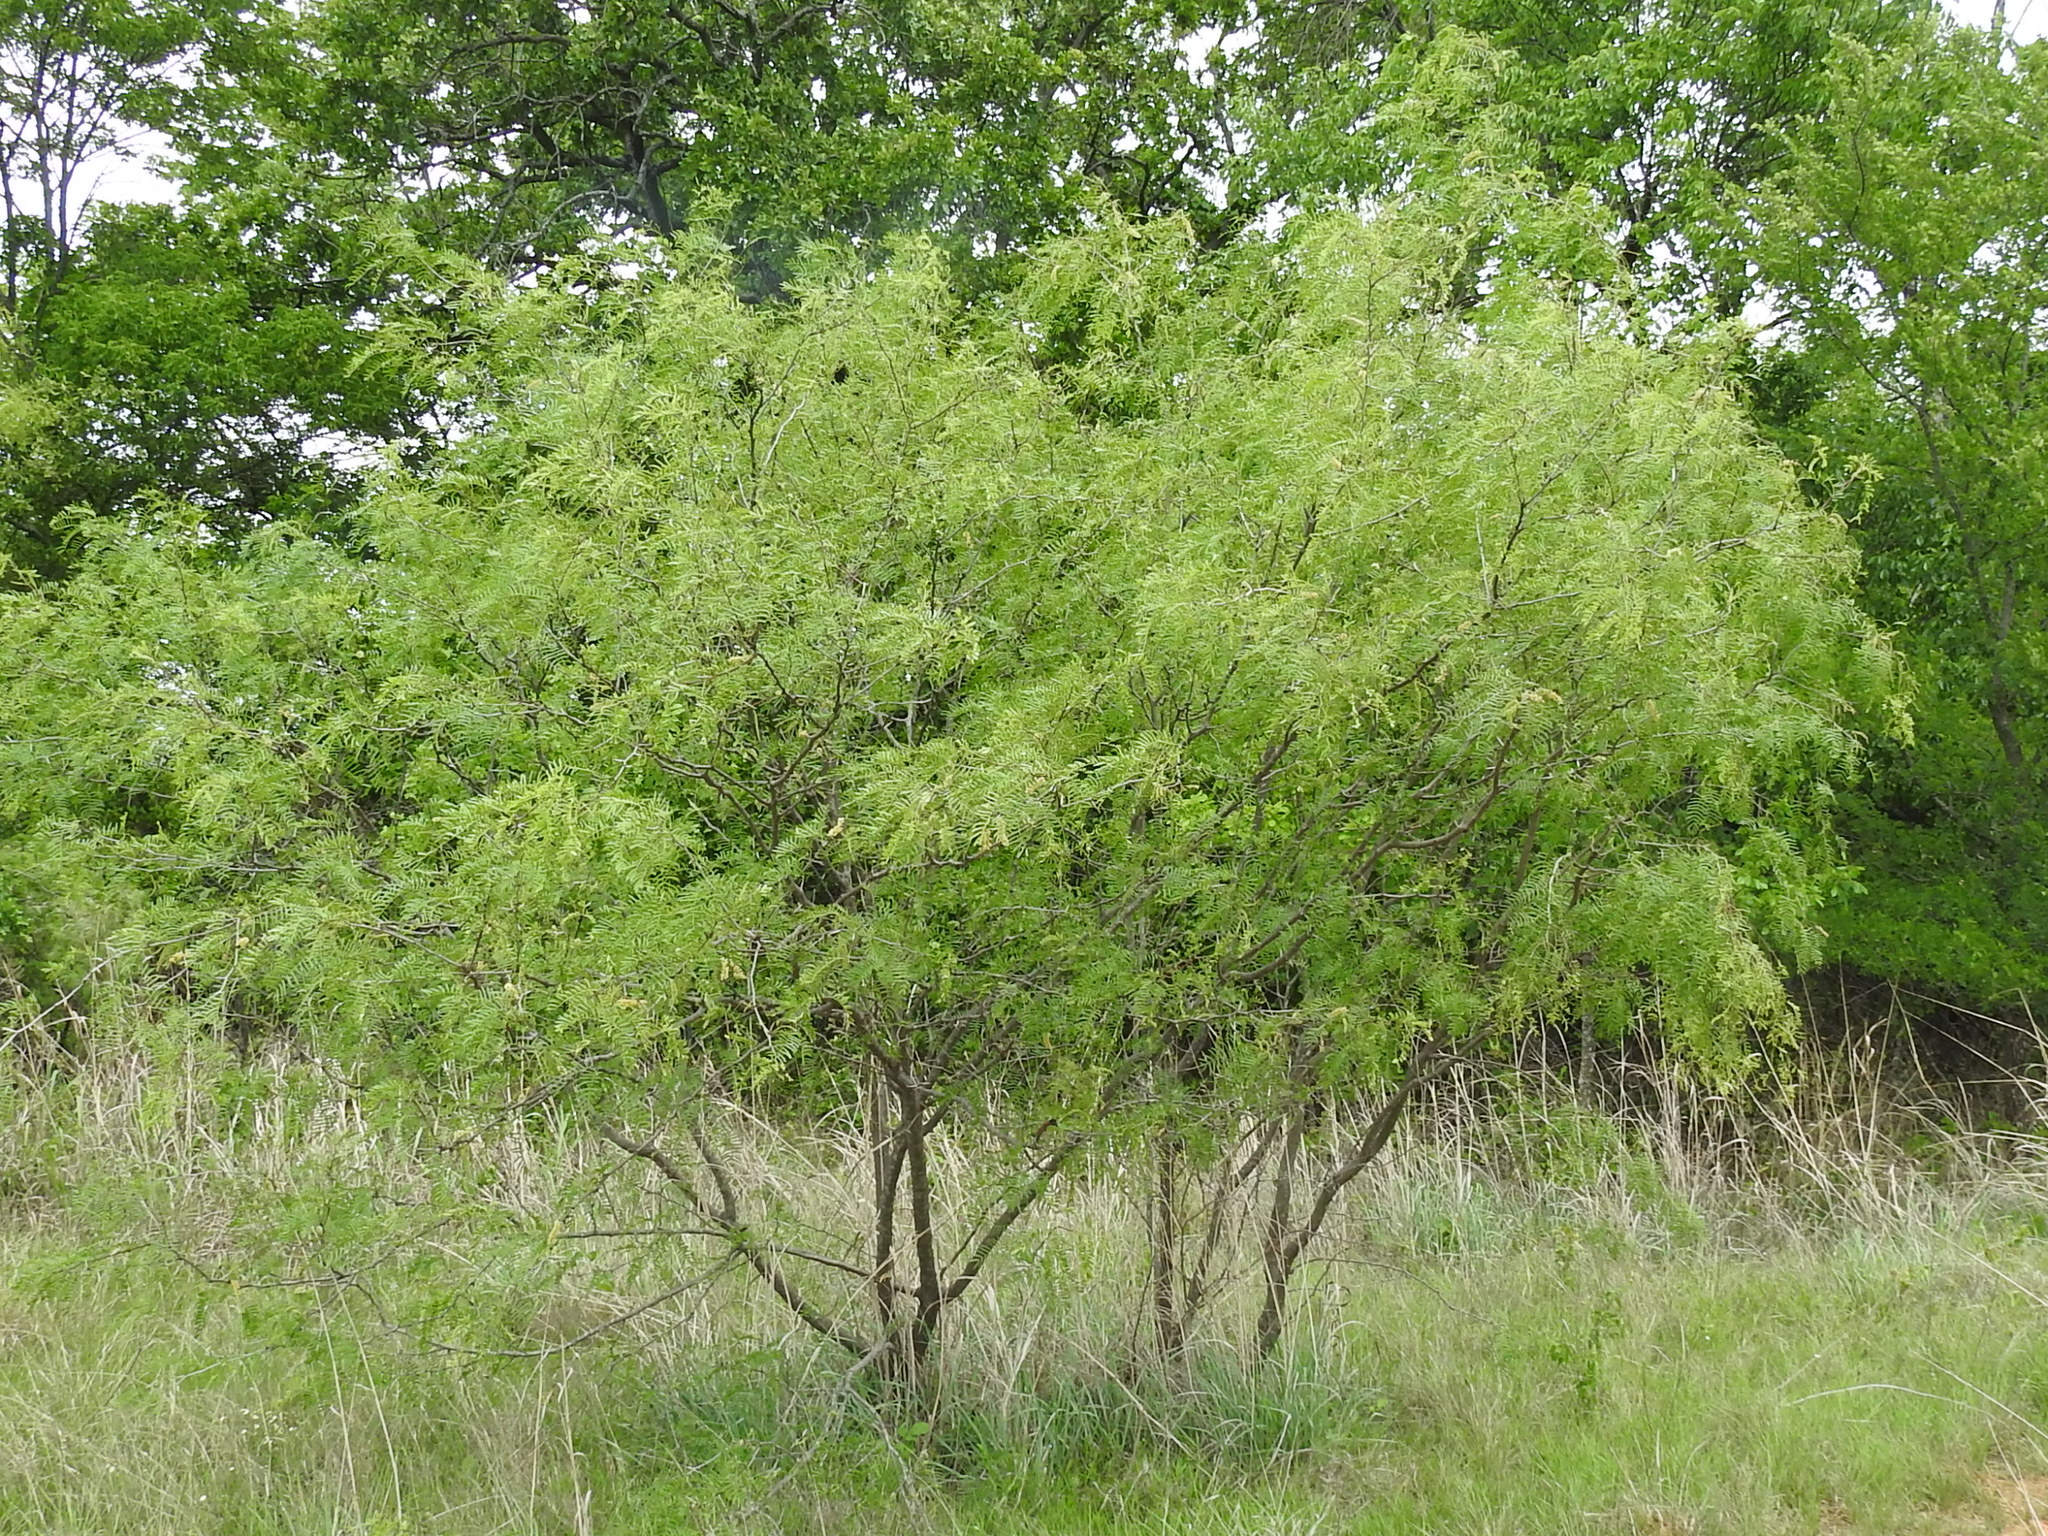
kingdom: Plantae
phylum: Tracheophyta
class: Magnoliopsida
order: Fabales
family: Fabaceae
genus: Prosopis
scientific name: Prosopis glandulosa
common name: Honey mesquite
